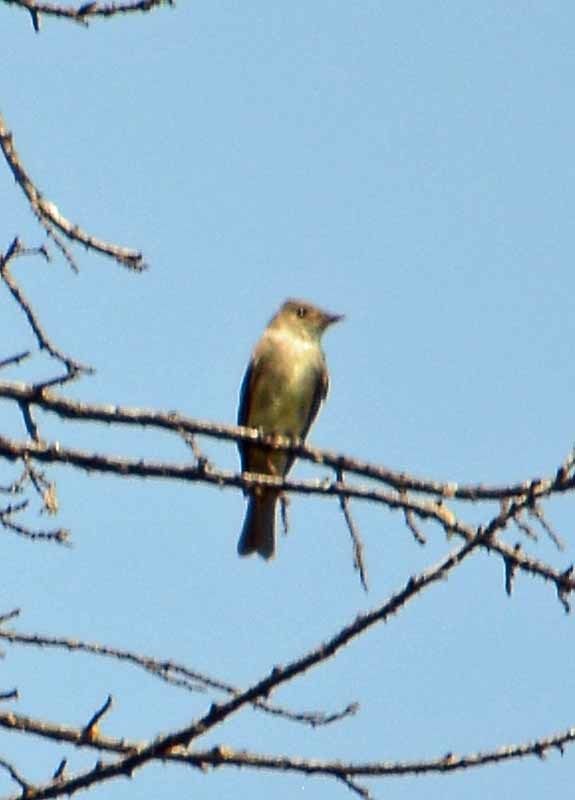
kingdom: Animalia
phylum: Chordata
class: Aves
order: Passeriformes
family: Tyrannidae
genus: Contopus
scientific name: Contopus sordidulus
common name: Western wood-pewee
